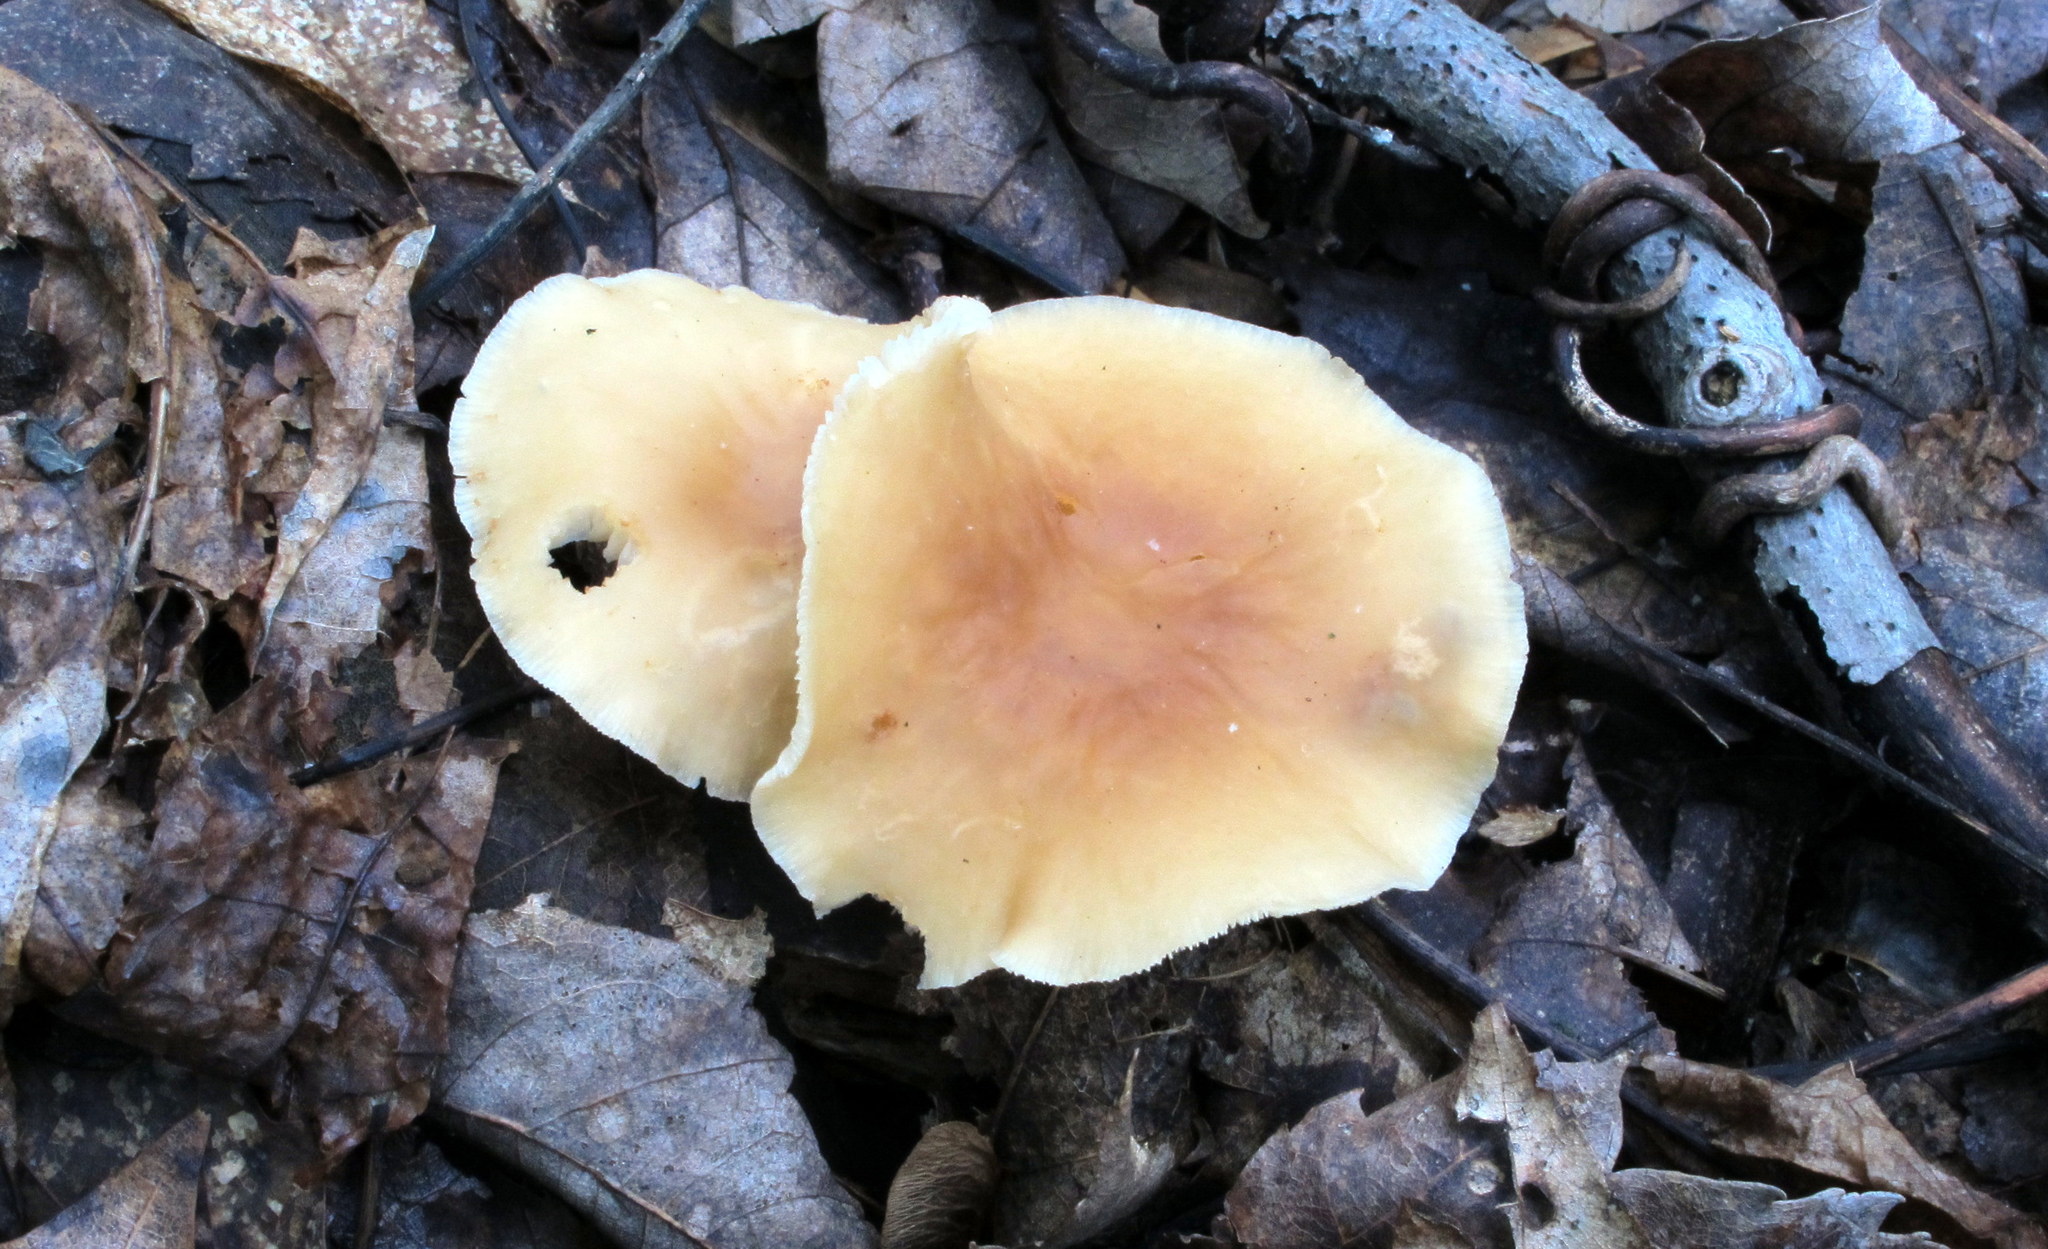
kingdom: Fungi
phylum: Basidiomycota
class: Agaricomycetes
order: Agaricales
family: Omphalotaceae
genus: Gymnopus
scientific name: Gymnopus dryophilus
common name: Penny top
